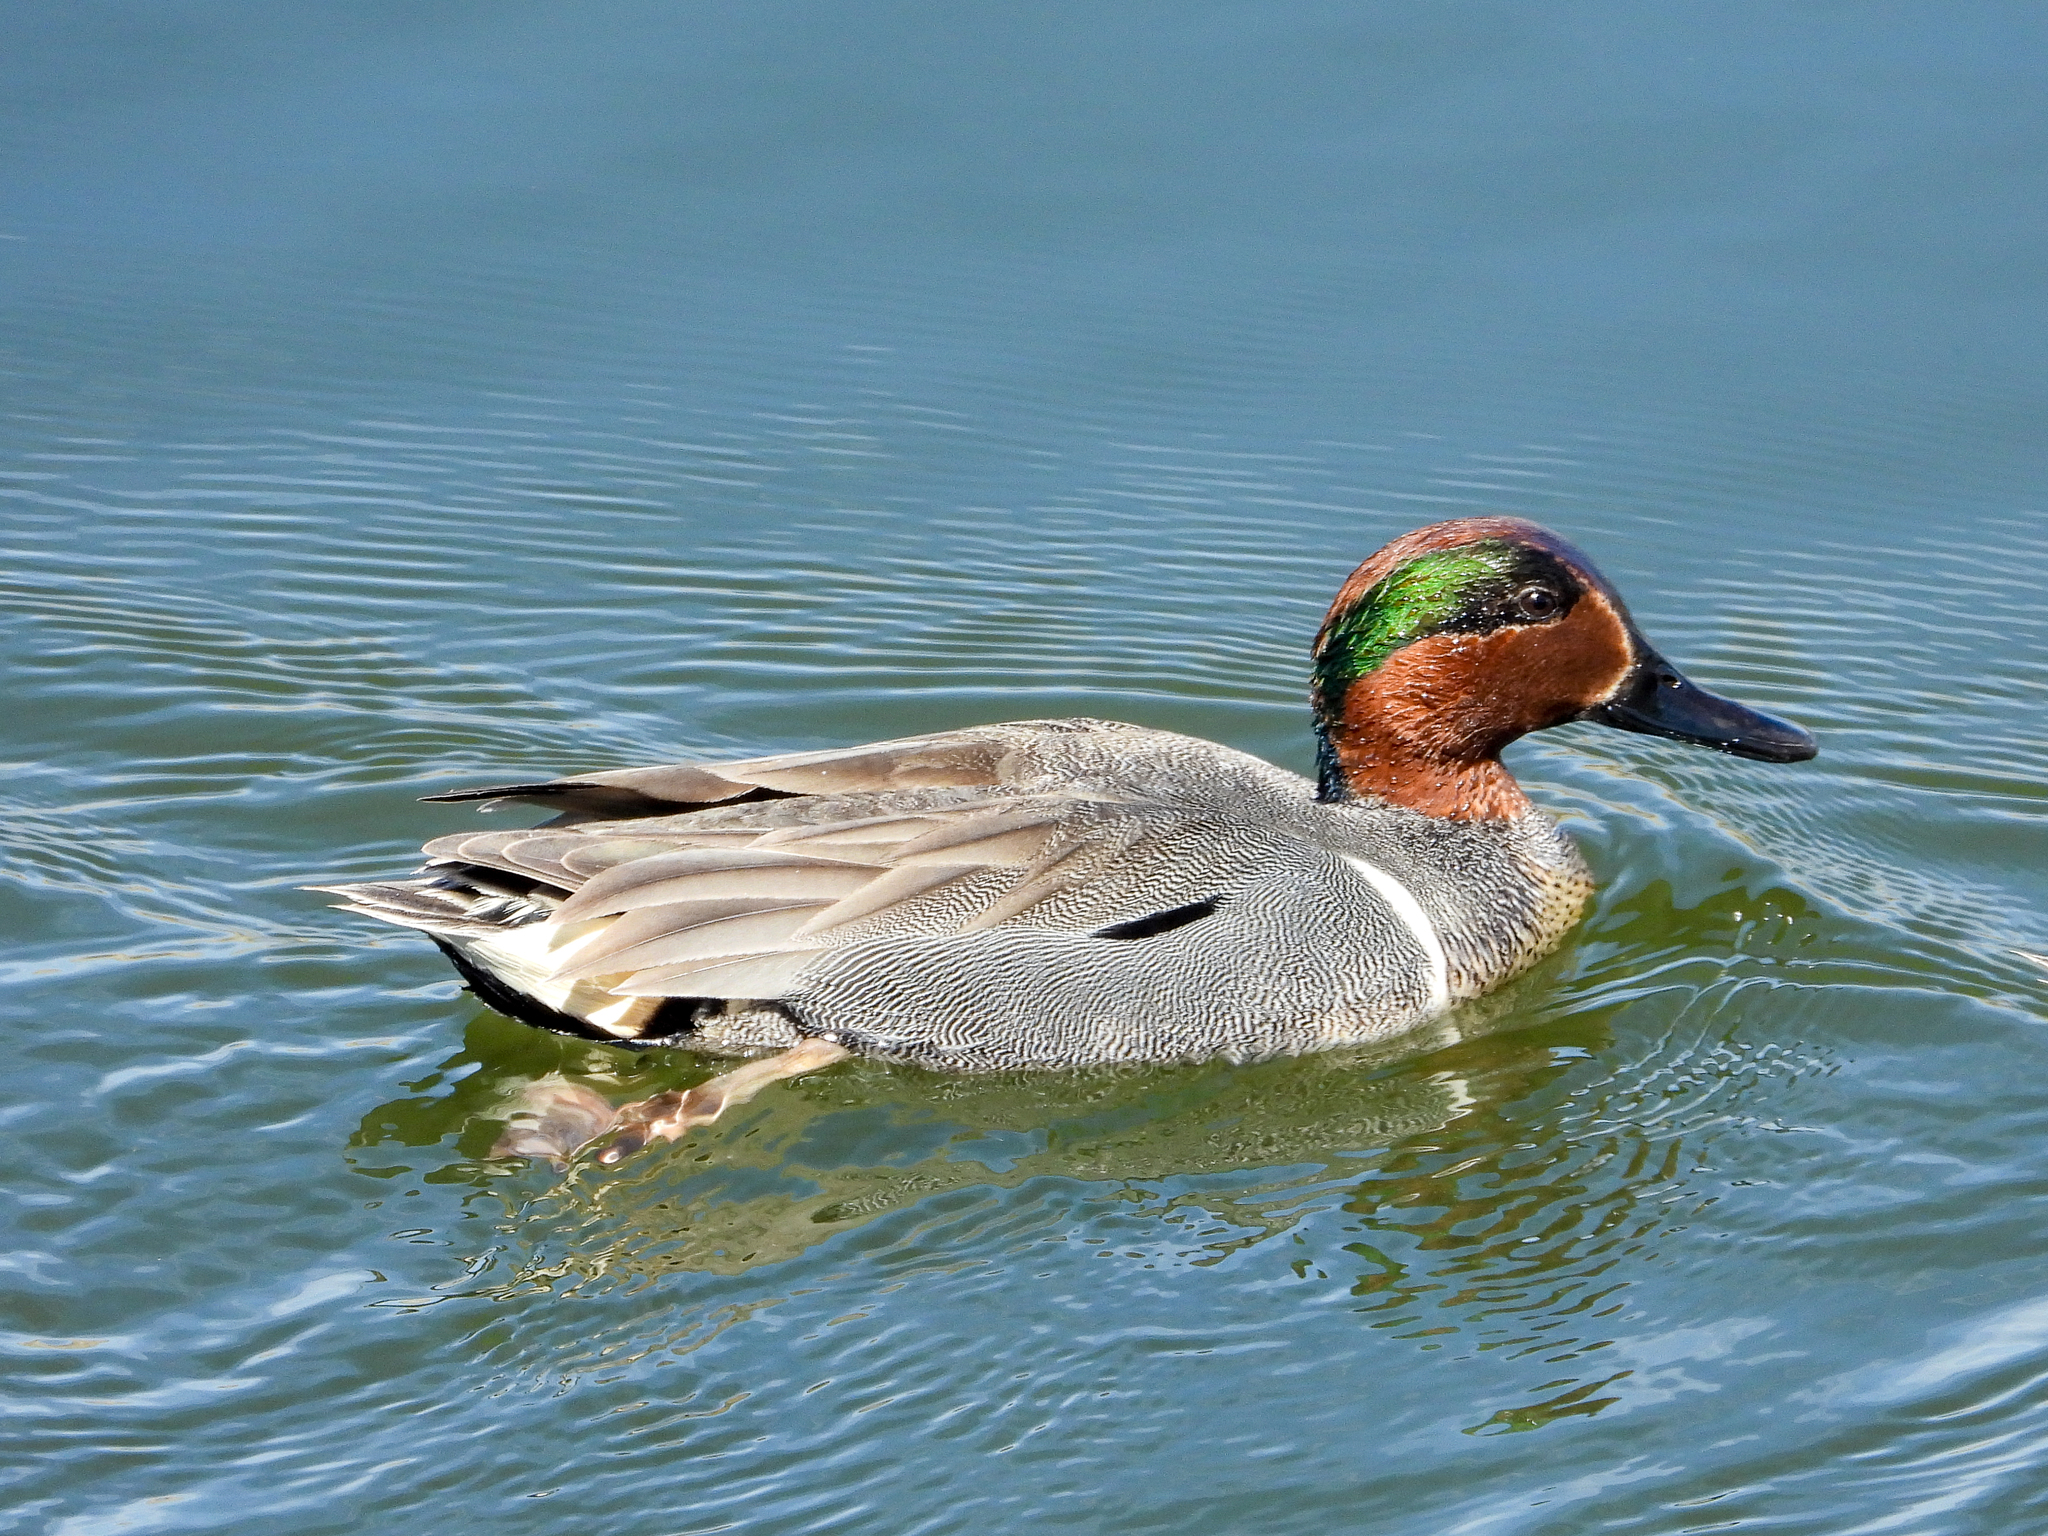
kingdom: Animalia
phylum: Chordata
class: Aves
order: Anseriformes
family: Anatidae
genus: Anas
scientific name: Anas crecca
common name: Eurasian teal
